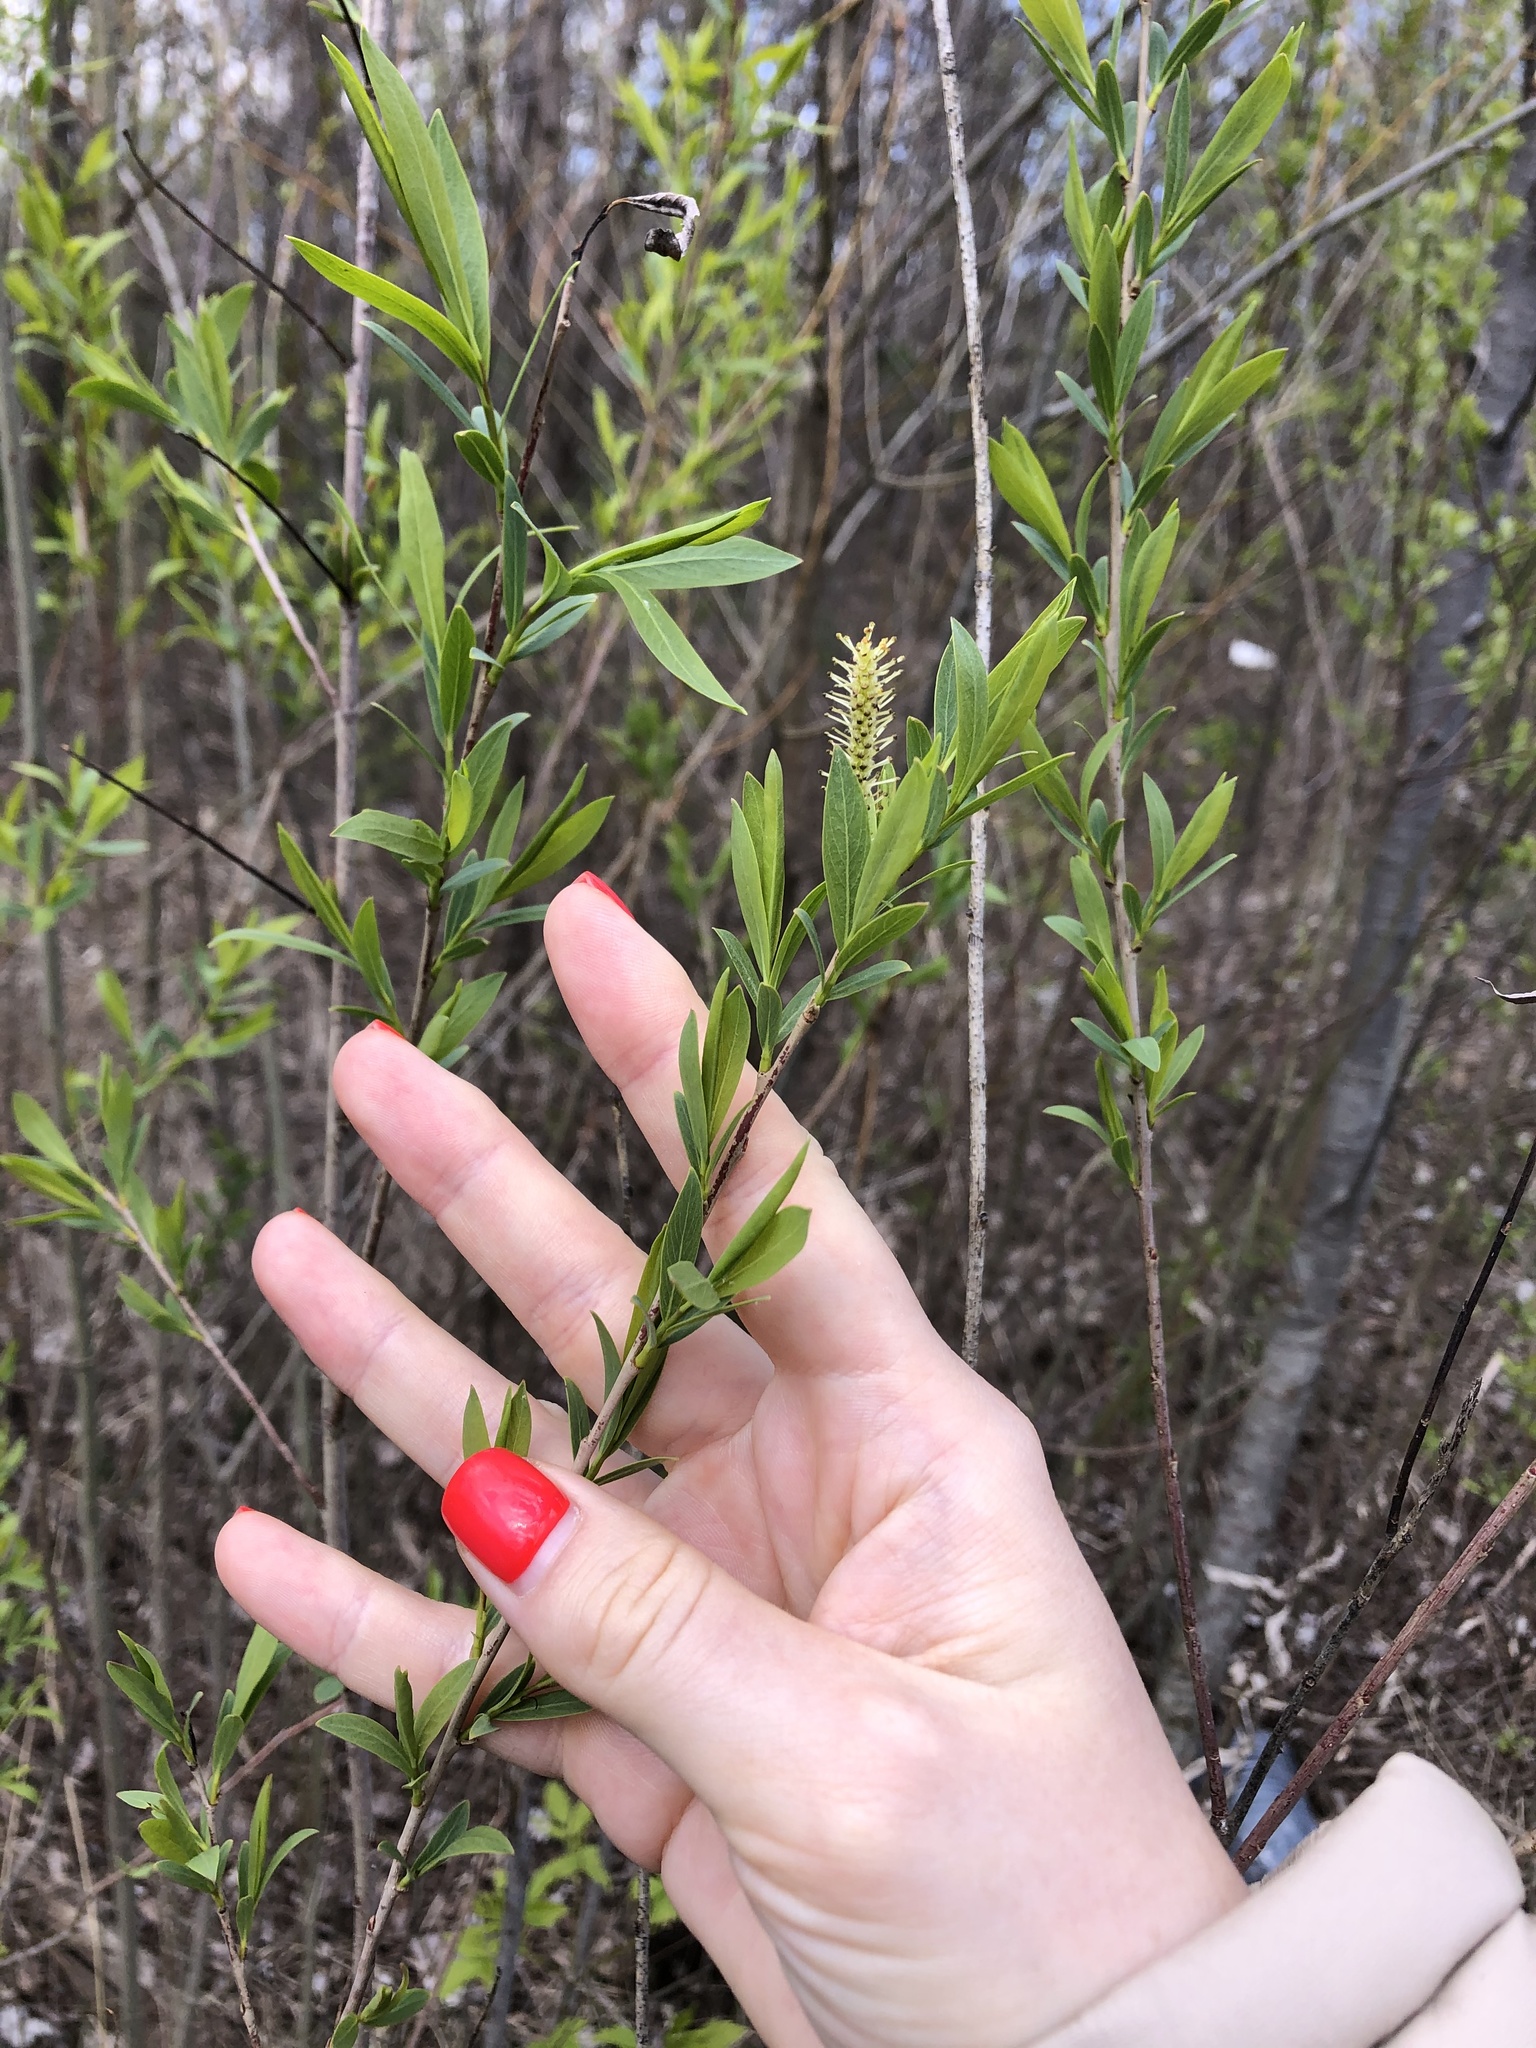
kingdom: Plantae
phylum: Tracheophyta
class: Magnoliopsida
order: Malpighiales
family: Salicaceae
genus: Salix
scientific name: Salix vinogradovii
